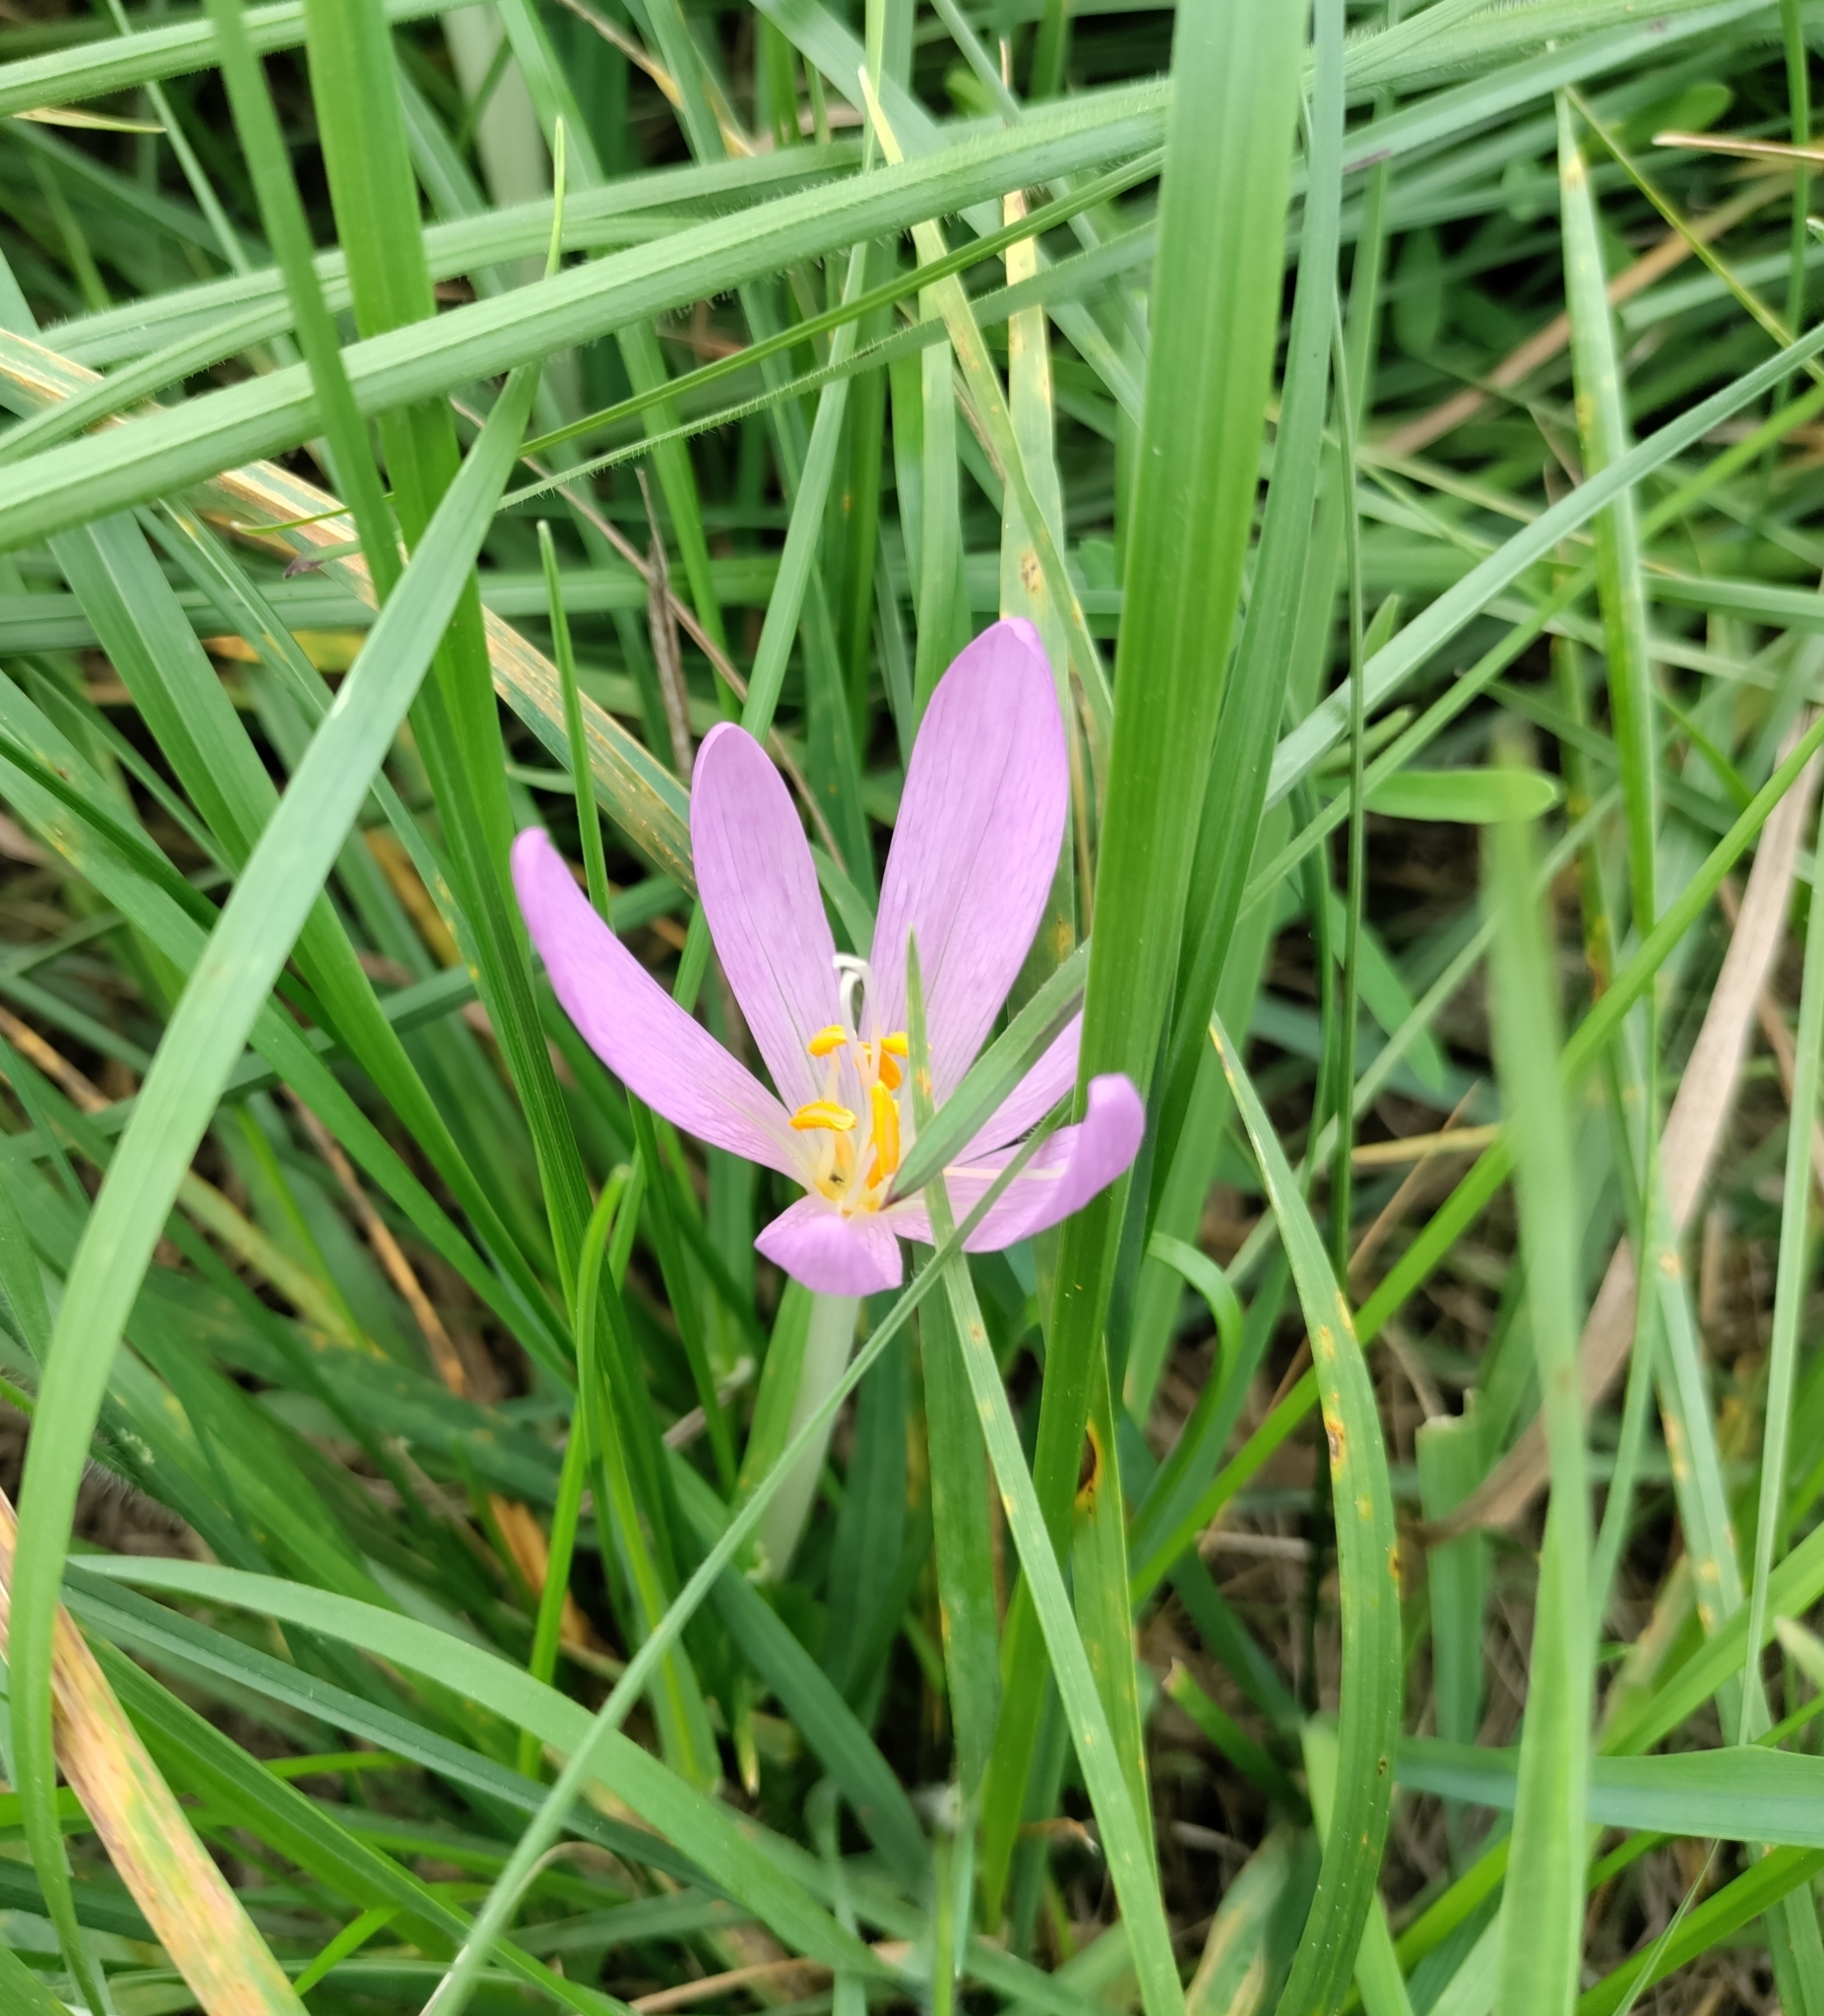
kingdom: Plantae
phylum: Tracheophyta
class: Liliopsida
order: Liliales
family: Colchicaceae
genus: Colchicum
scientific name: Colchicum autumnale
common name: Autumn crocus
